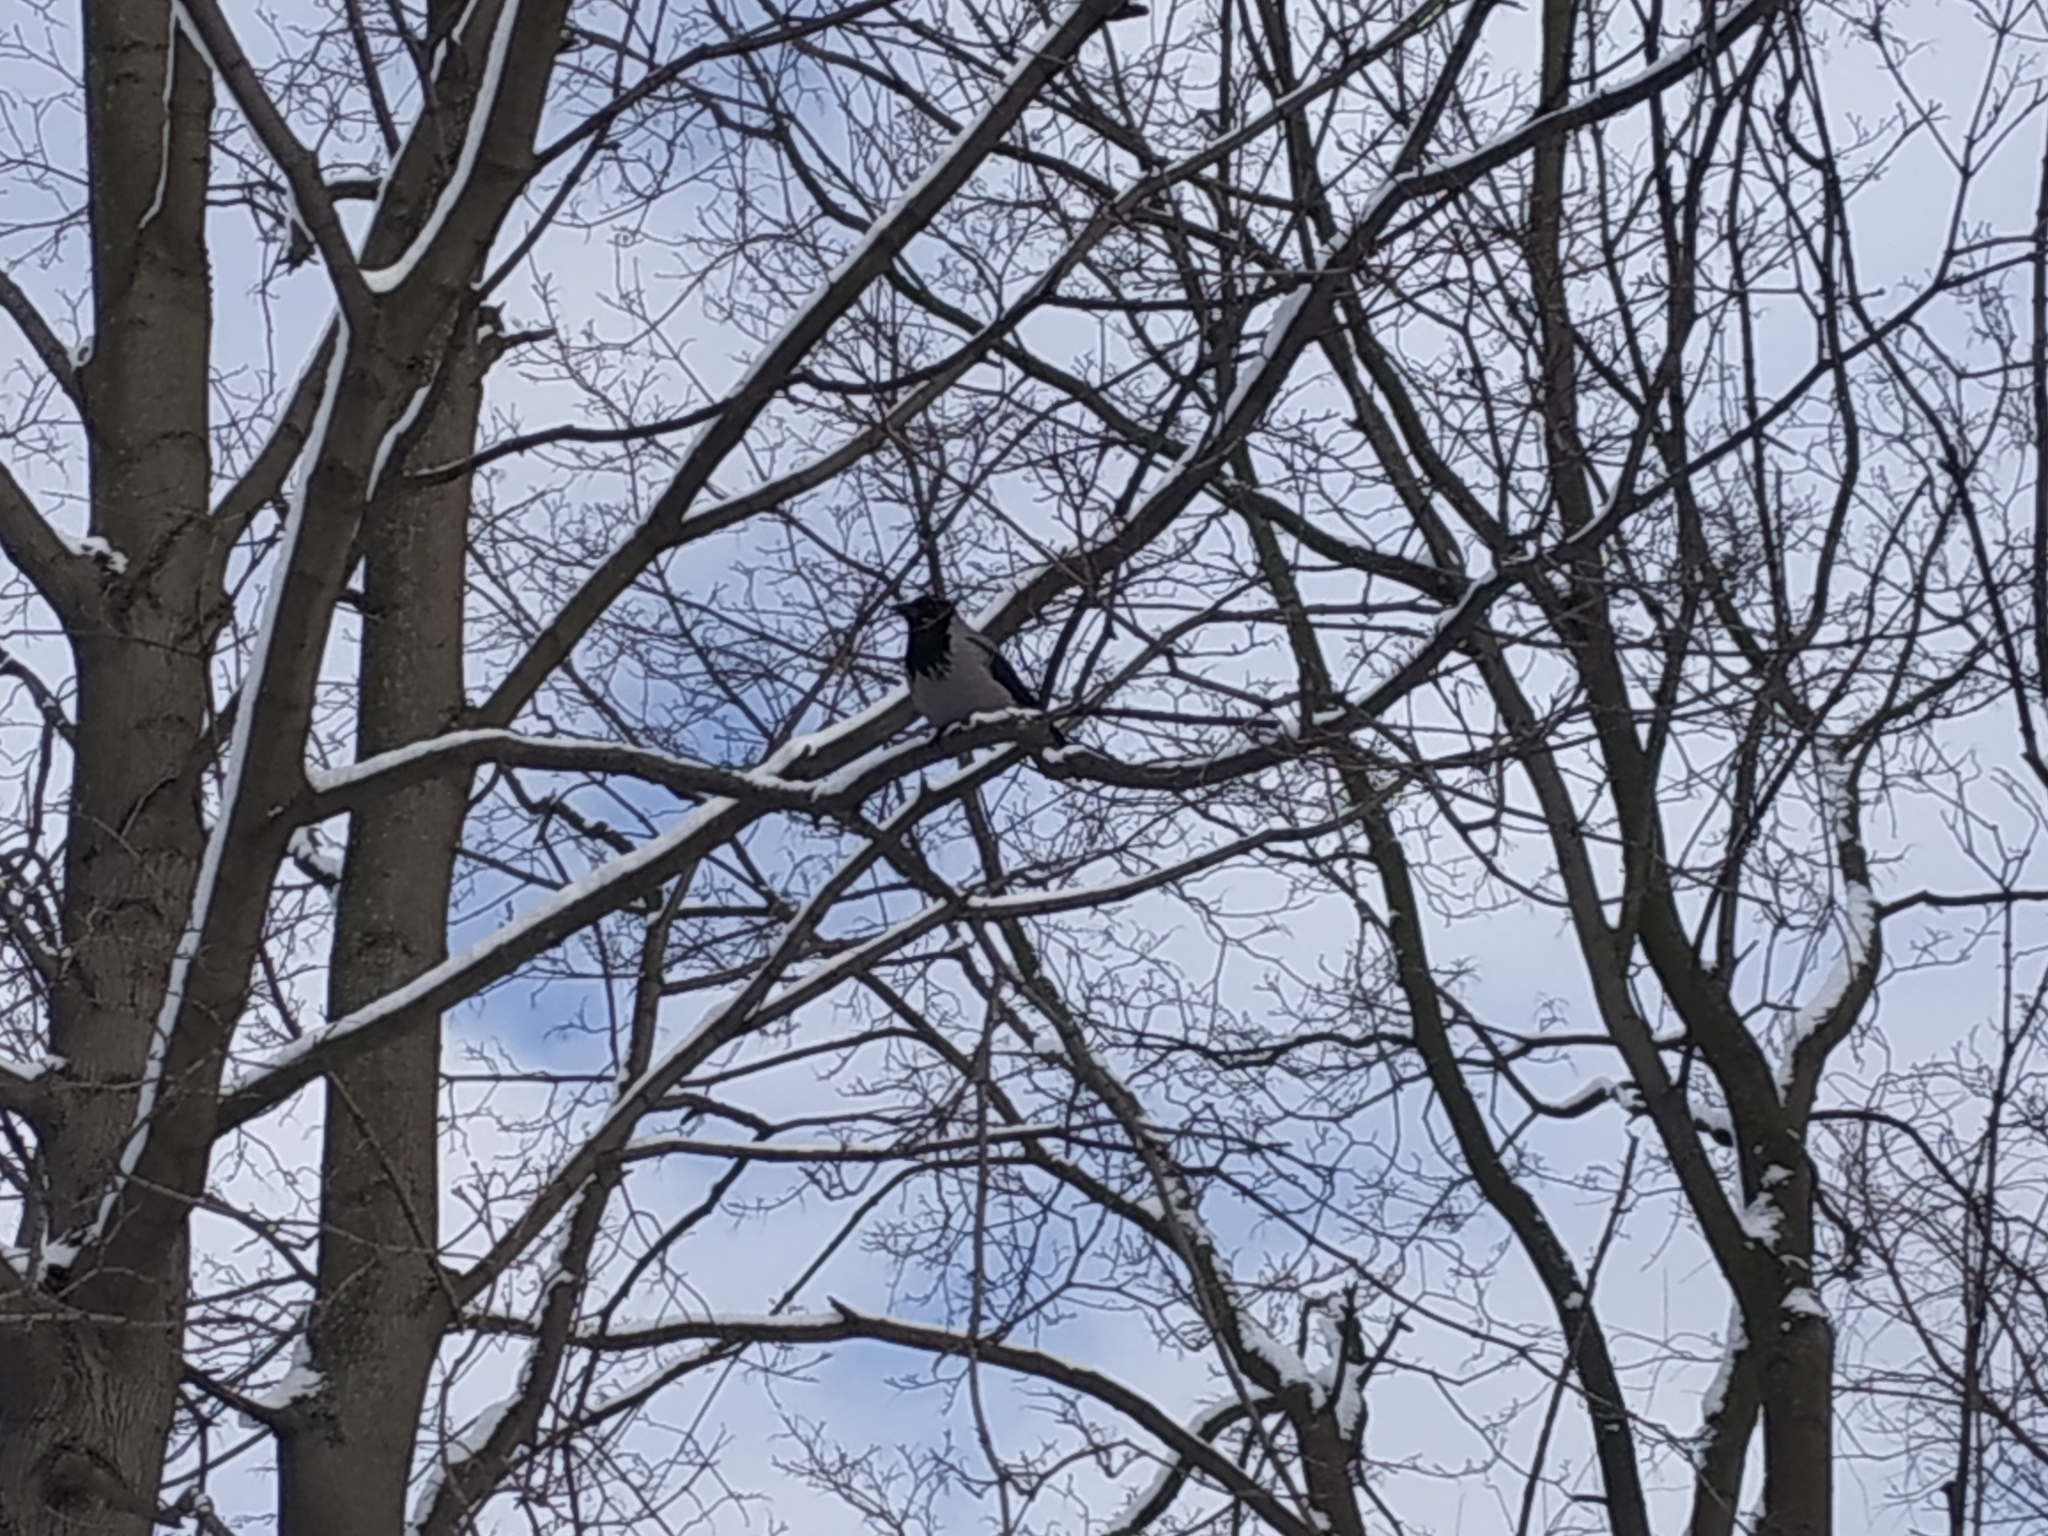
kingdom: Animalia
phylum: Chordata
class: Aves
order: Passeriformes
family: Corvidae
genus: Corvus
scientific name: Corvus cornix
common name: Hooded crow
